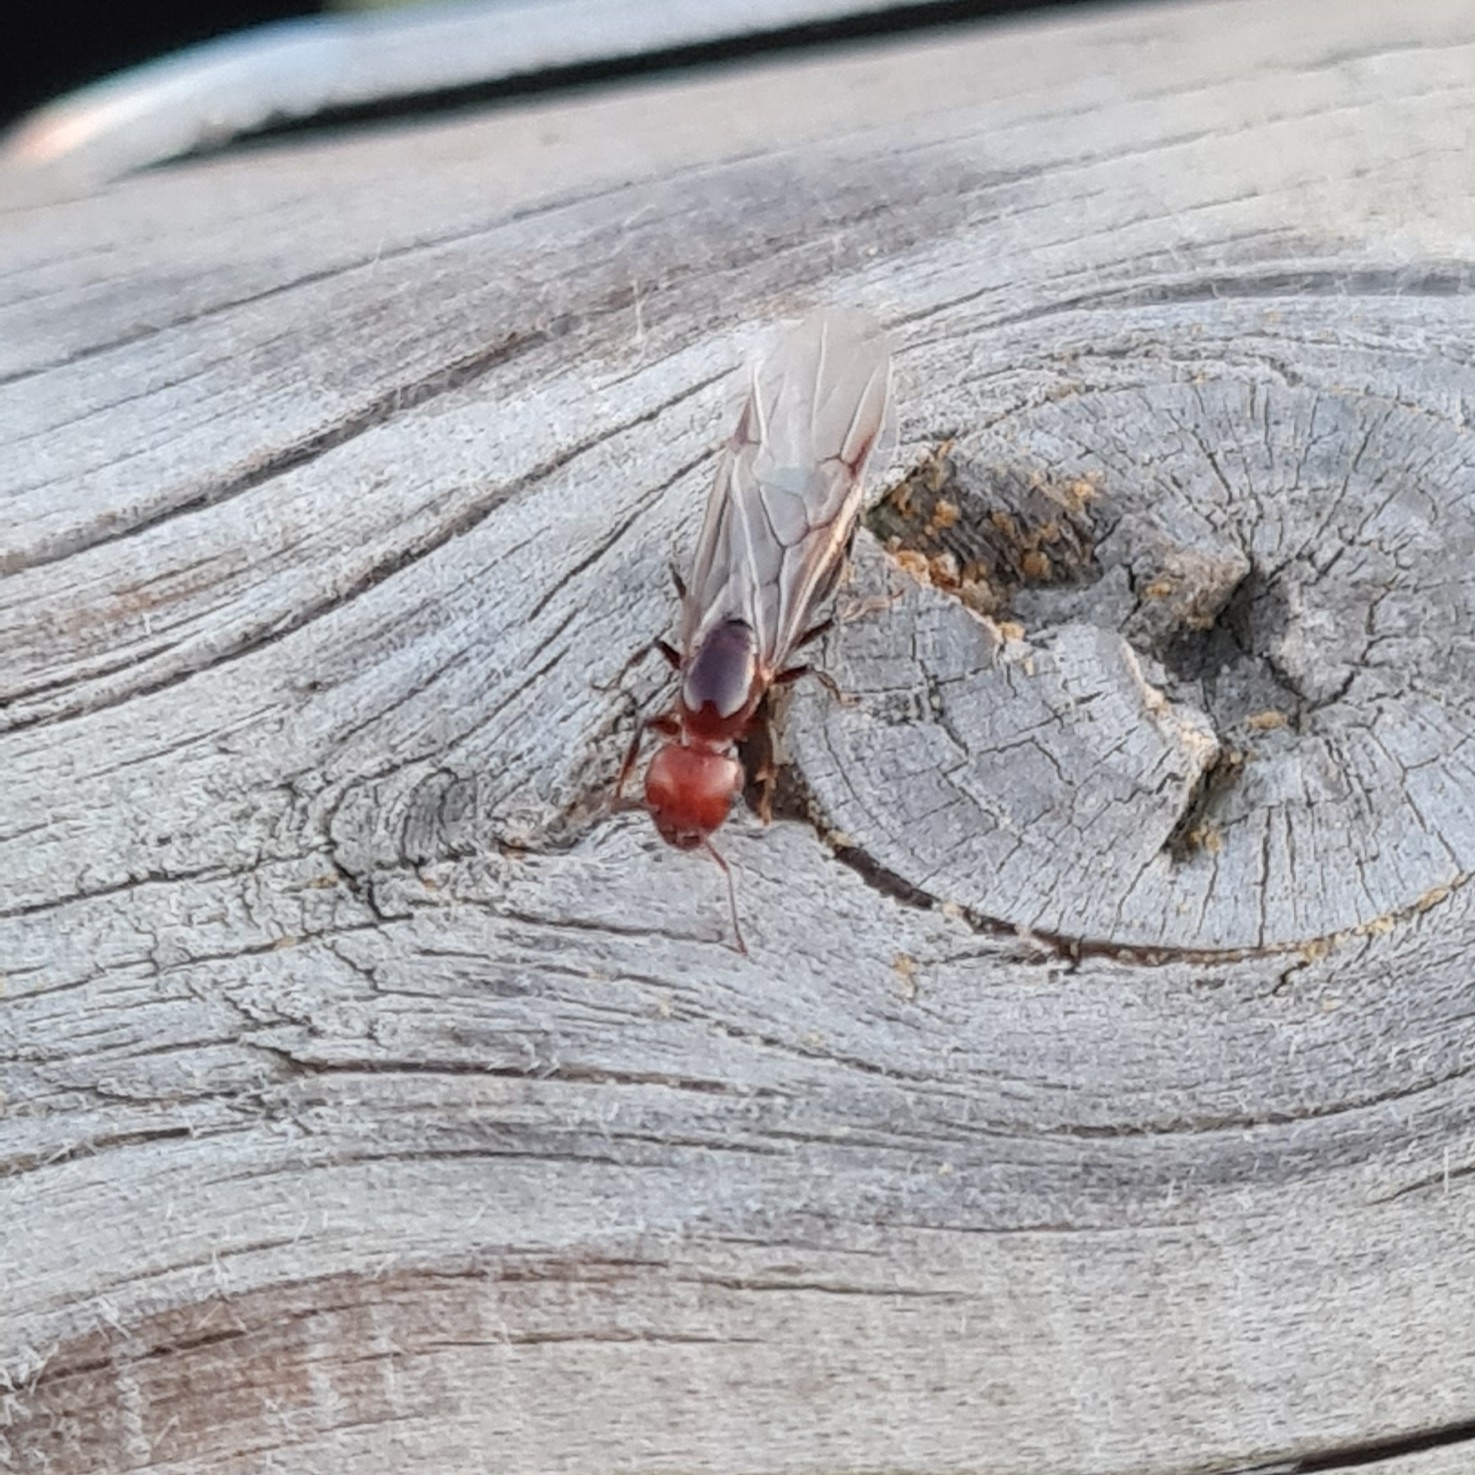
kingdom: Animalia
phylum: Arthropoda
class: Insecta
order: Hymenoptera
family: Formicidae
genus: Crematogaster
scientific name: Crematogaster scutellaris
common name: Fourmi du liège
